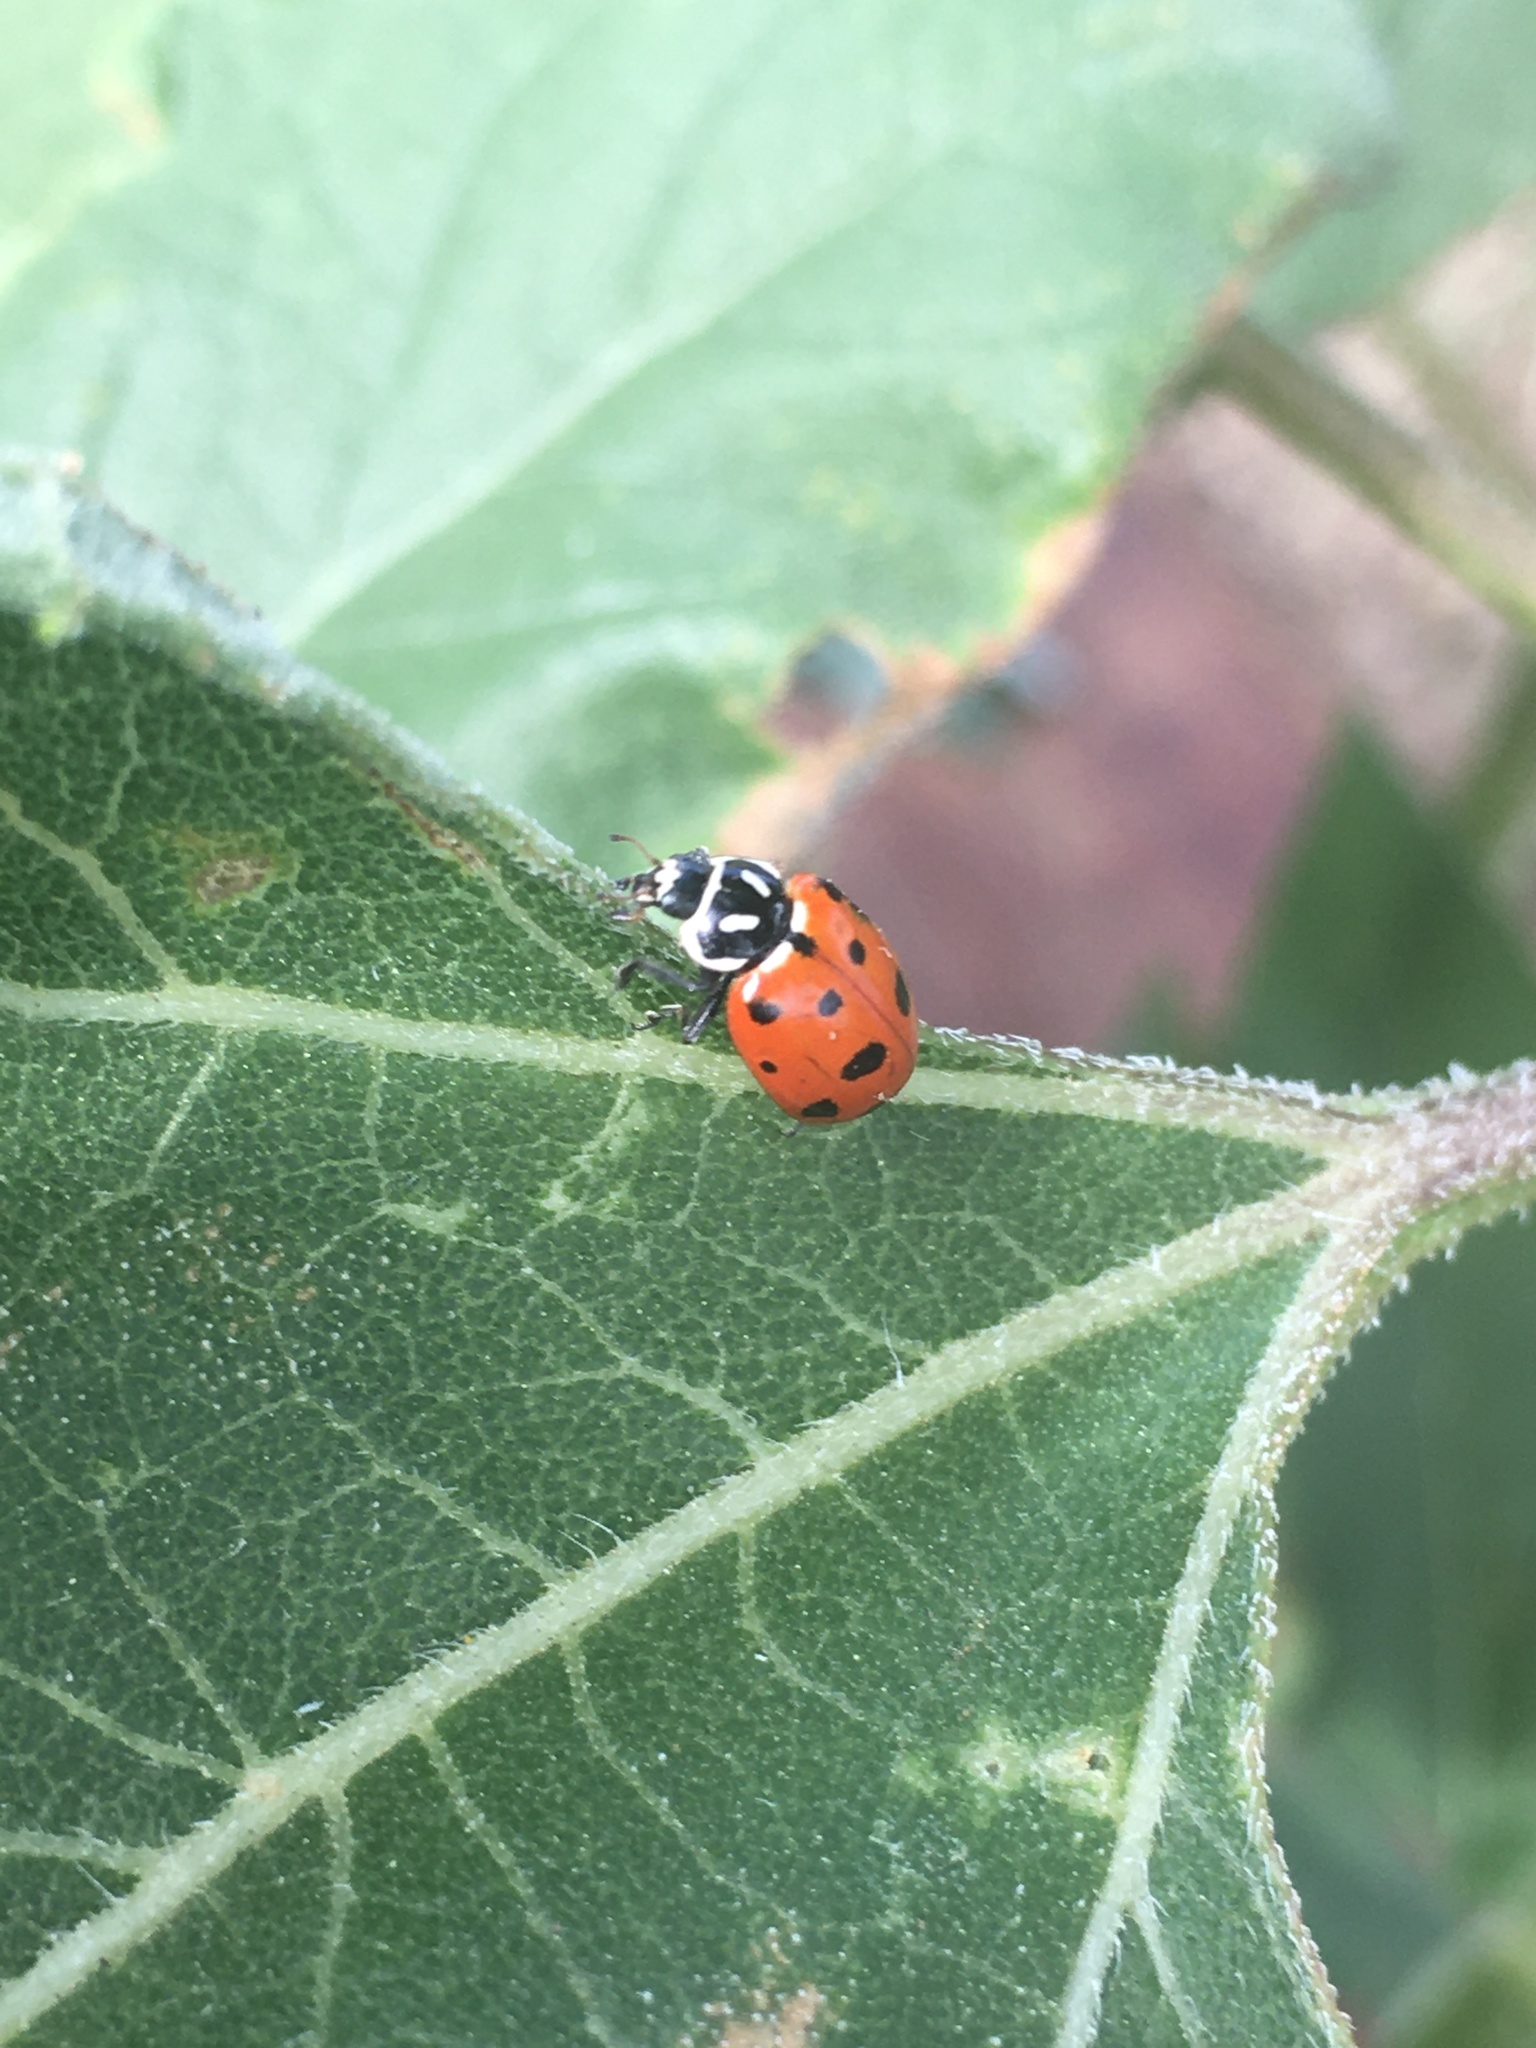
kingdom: Animalia
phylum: Arthropoda
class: Insecta
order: Coleoptera
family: Coccinellidae
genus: Hippodamia
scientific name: Hippodamia convergens
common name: Convergent lady beetle
